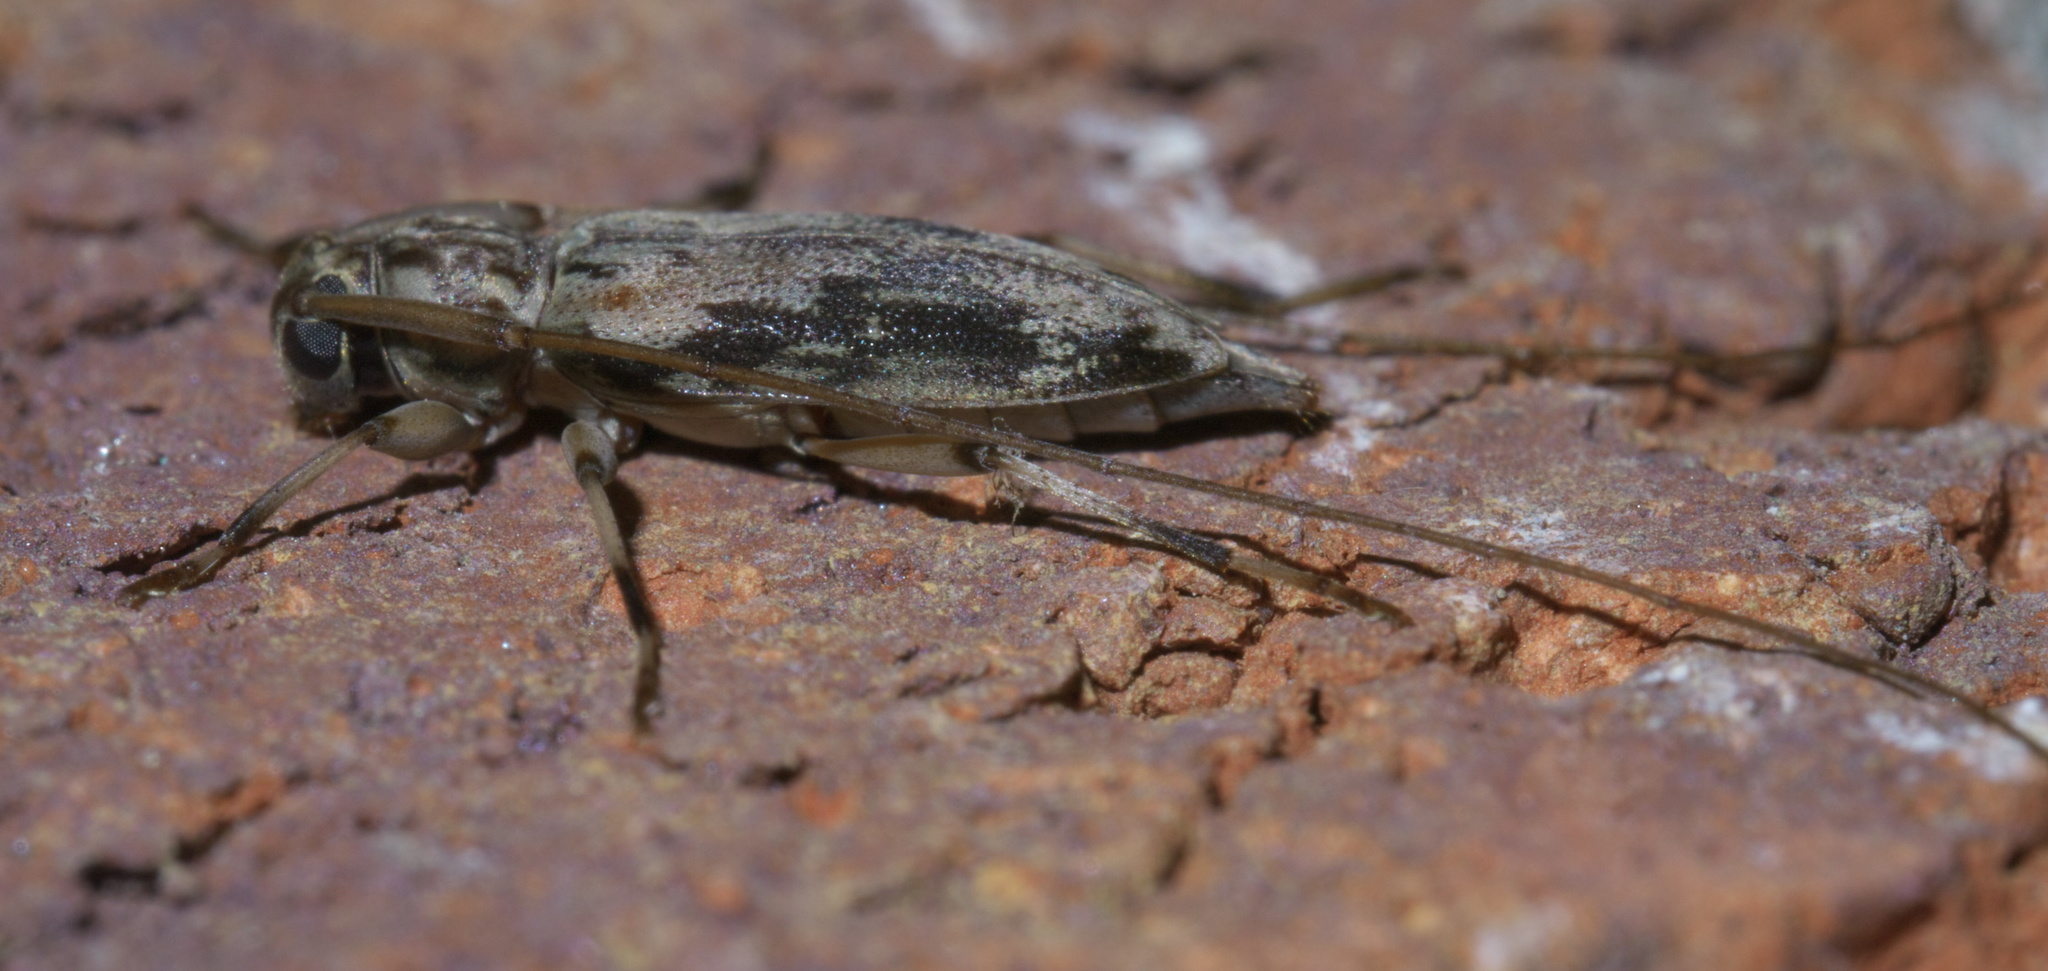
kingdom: Animalia
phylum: Arthropoda
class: Insecta
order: Coleoptera
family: Cerambycidae
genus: Lepturges
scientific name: Lepturges angulatus
